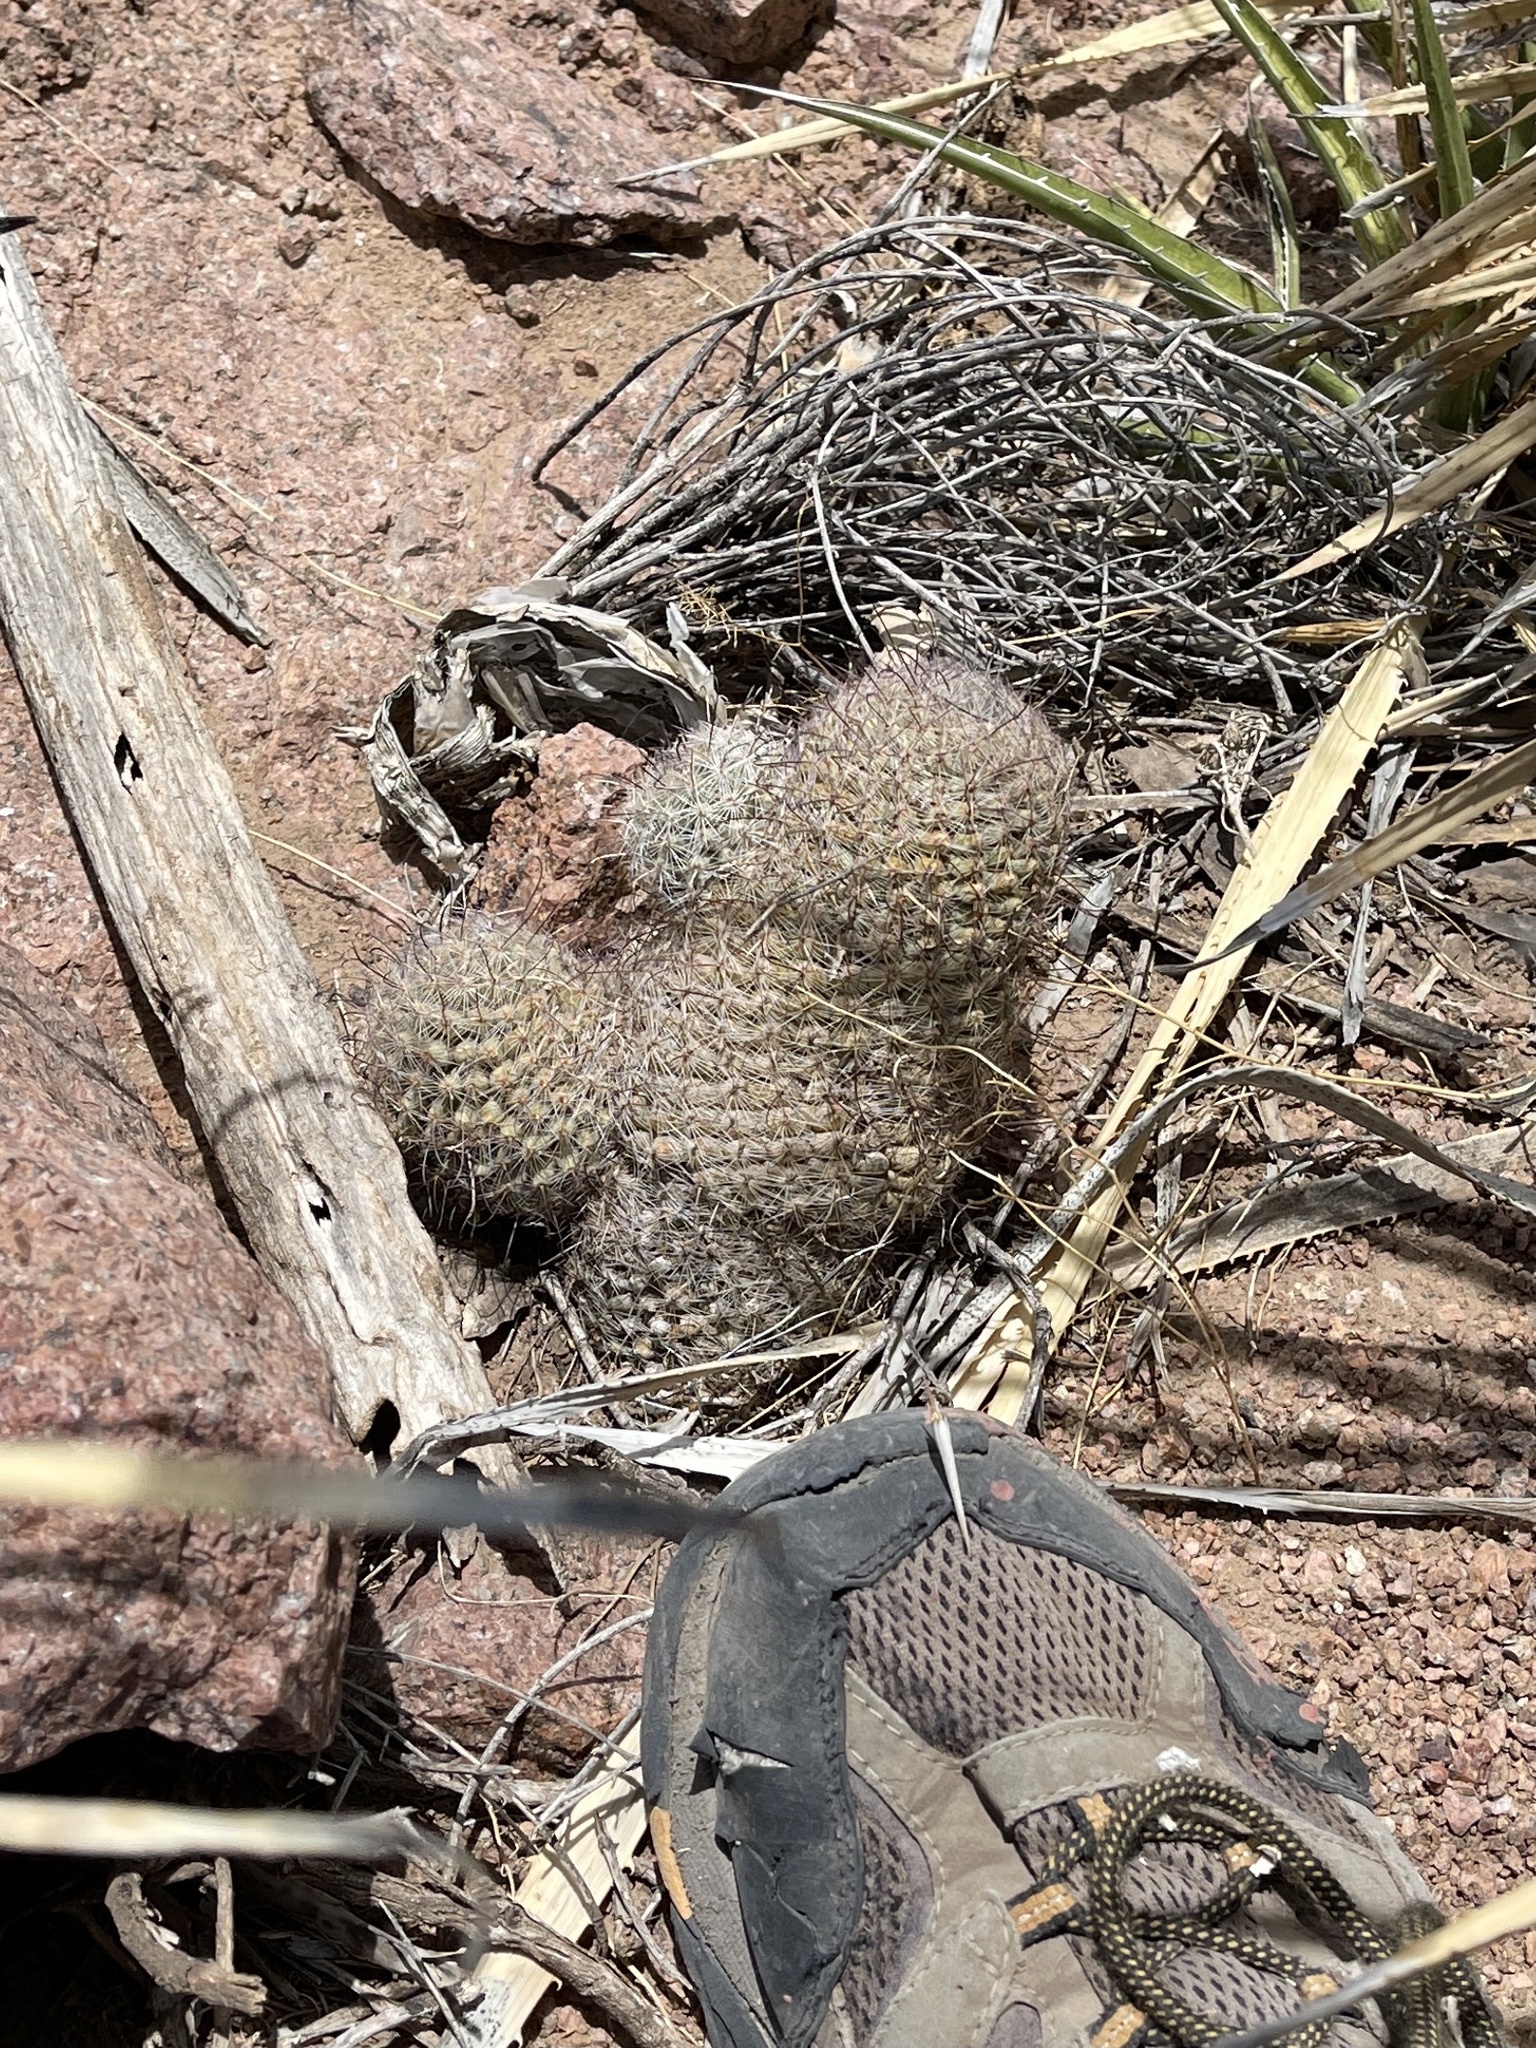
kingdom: Plantae
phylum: Tracheophyta
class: Magnoliopsida
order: Caryophyllales
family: Cactaceae
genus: Cochemiea
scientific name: Cochemiea grahamii
